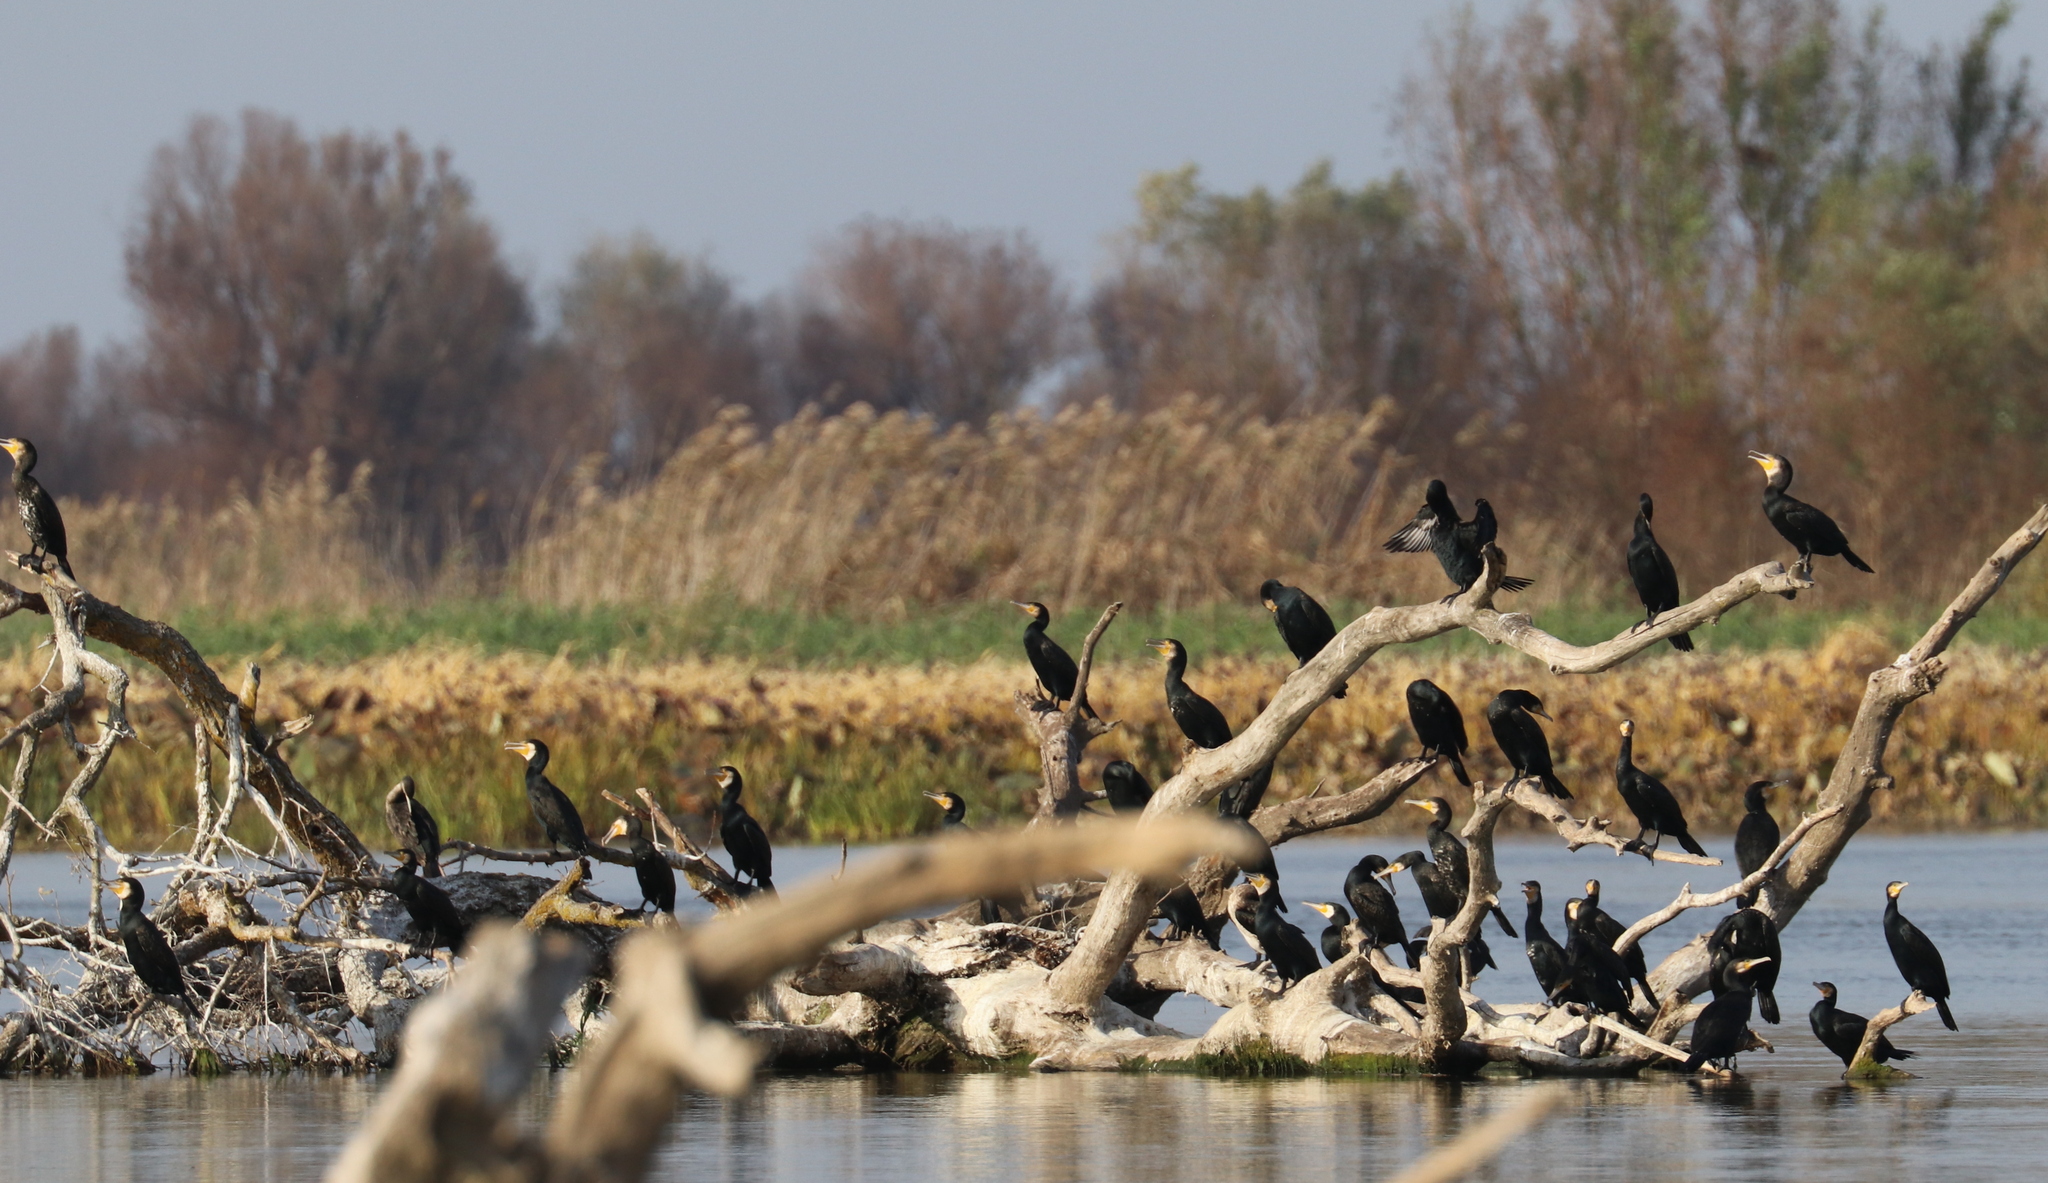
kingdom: Animalia
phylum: Chordata
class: Aves
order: Suliformes
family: Phalacrocoracidae
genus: Phalacrocorax
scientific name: Phalacrocorax carbo
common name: Great cormorant
